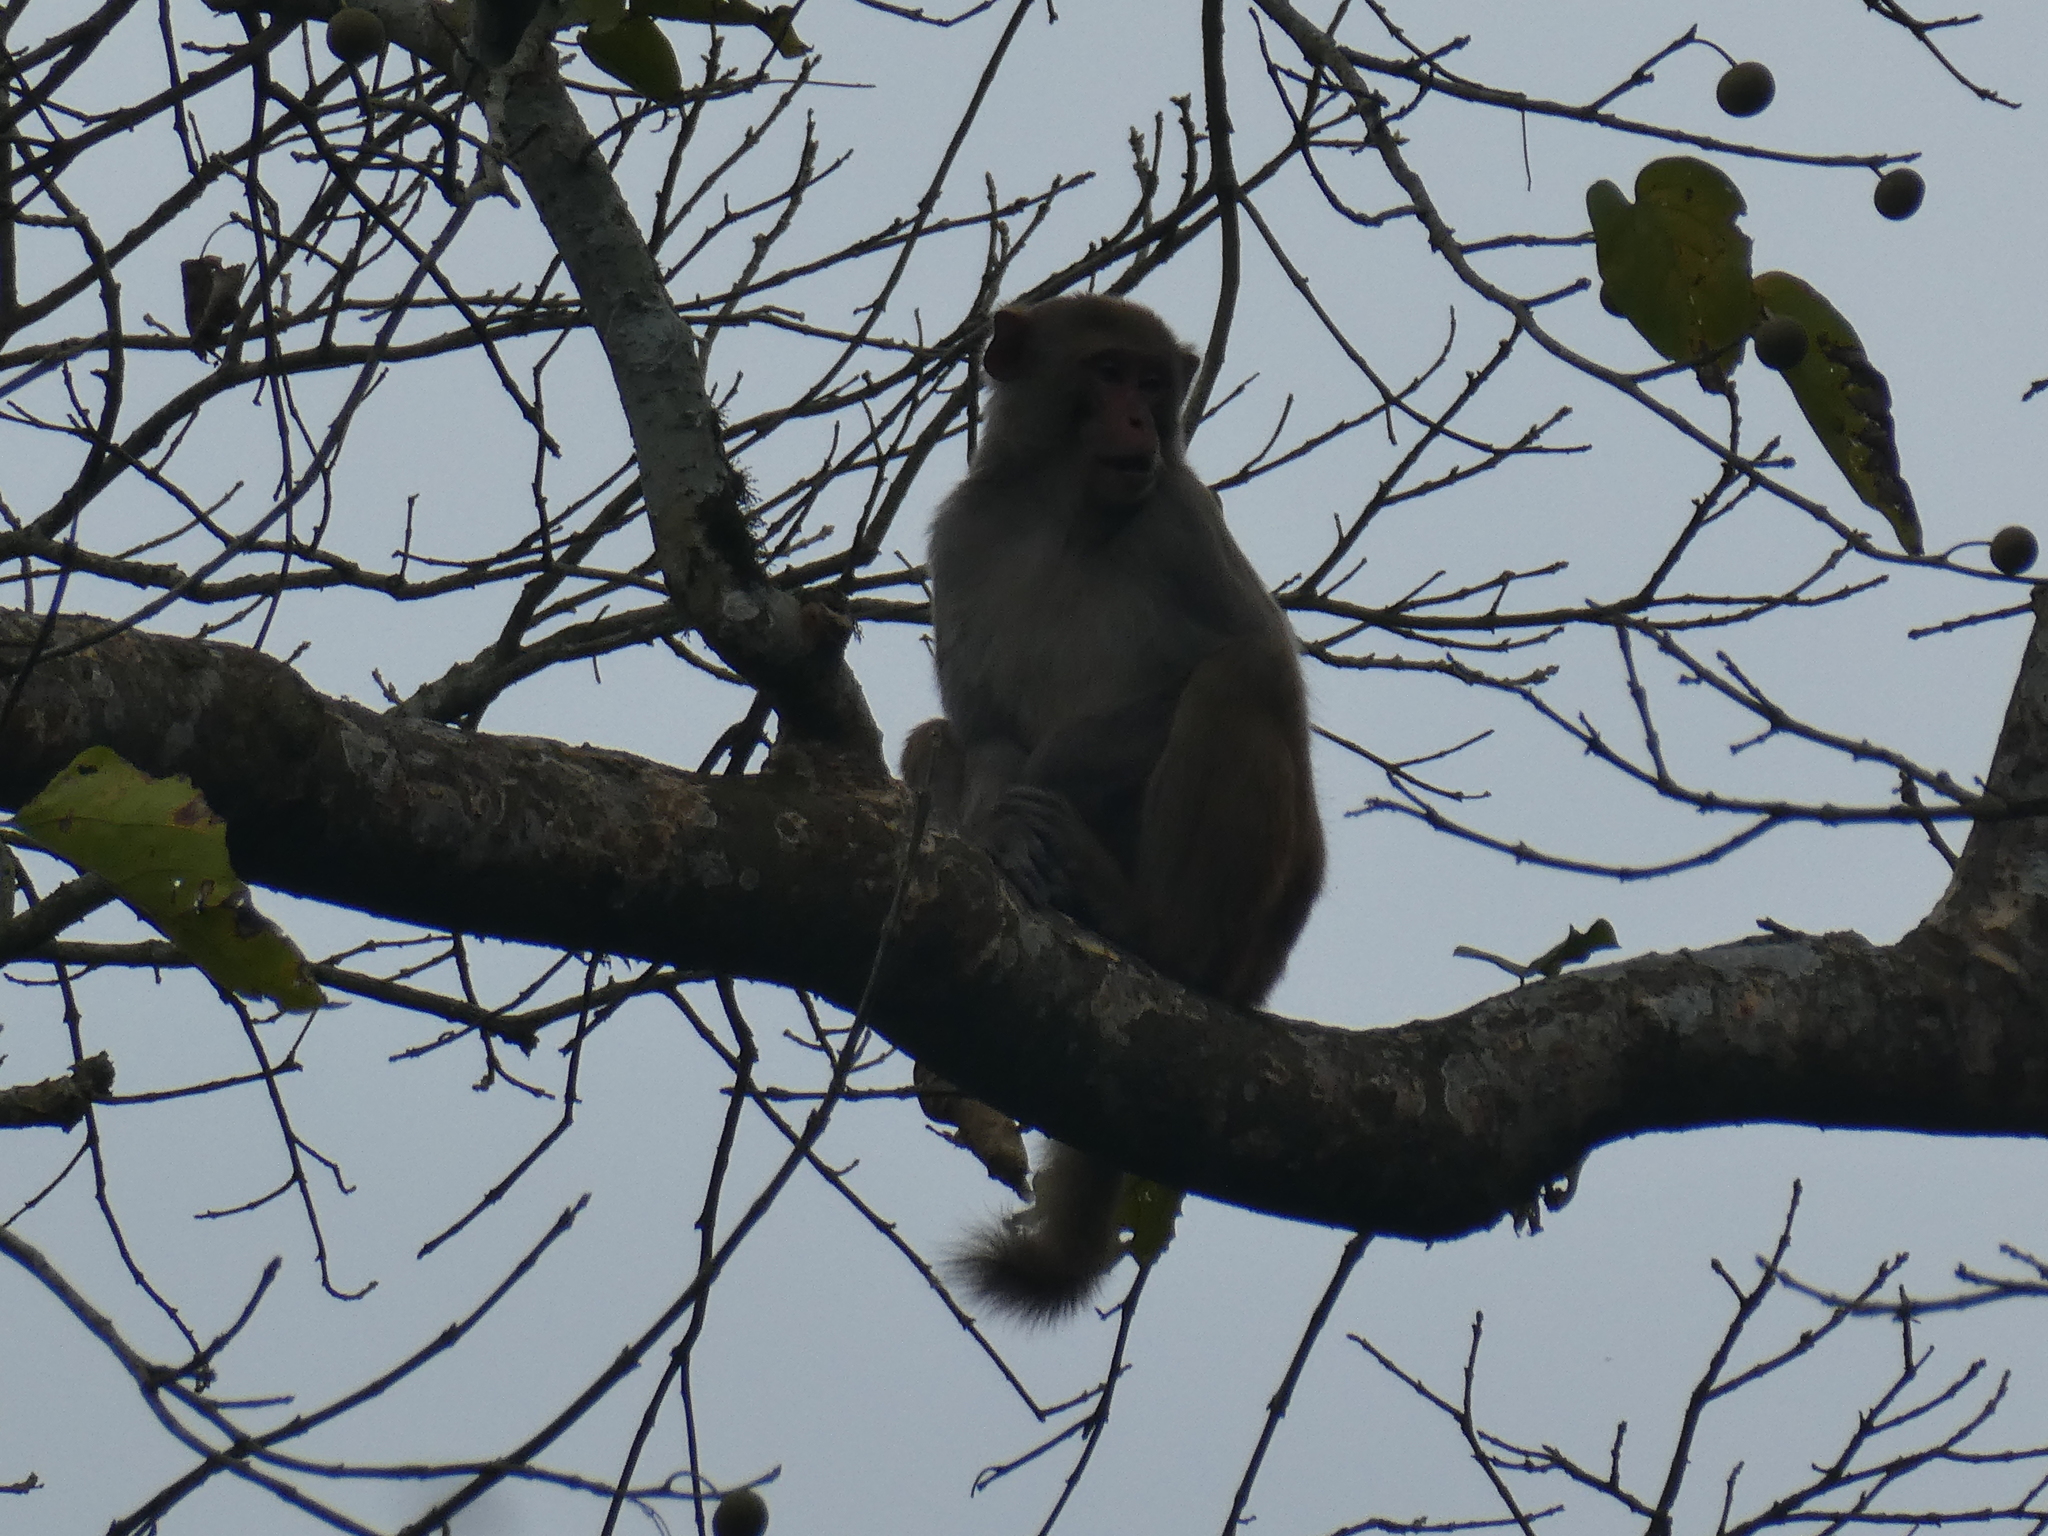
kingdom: Animalia
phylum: Chordata
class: Mammalia
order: Primates
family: Cercopithecidae
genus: Macaca
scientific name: Macaca mulatta
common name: Rhesus monkey
